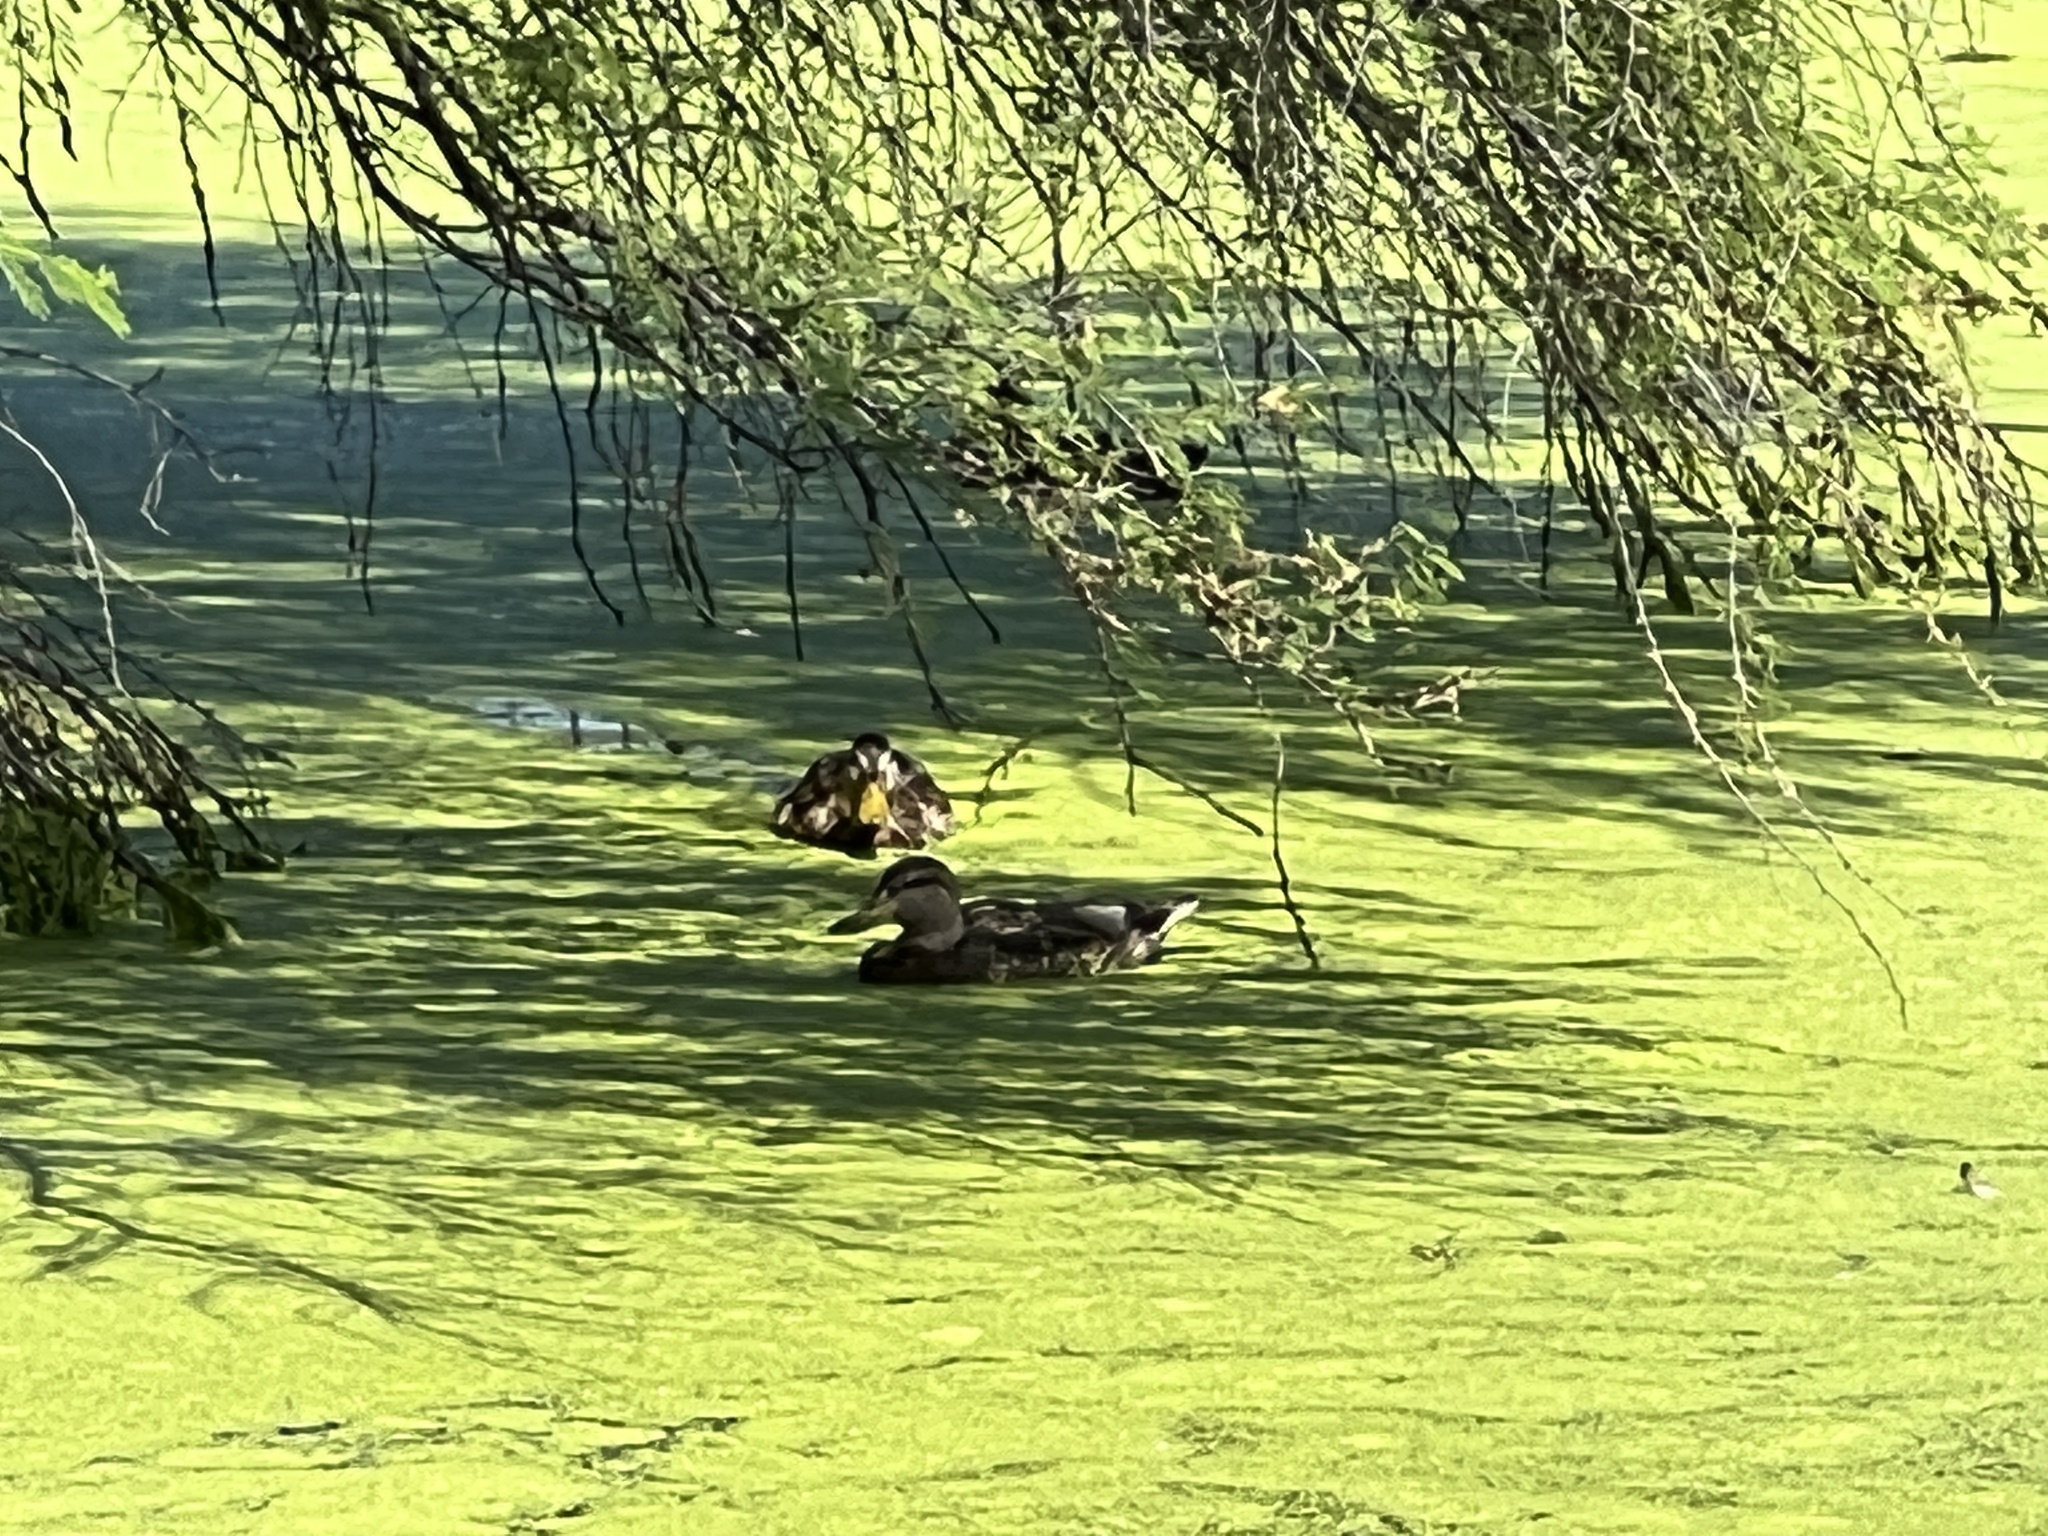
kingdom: Animalia
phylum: Chordata
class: Aves
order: Anseriformes
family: Anatidae
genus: Anas
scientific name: Anas platyrhynchos
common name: Mallard
